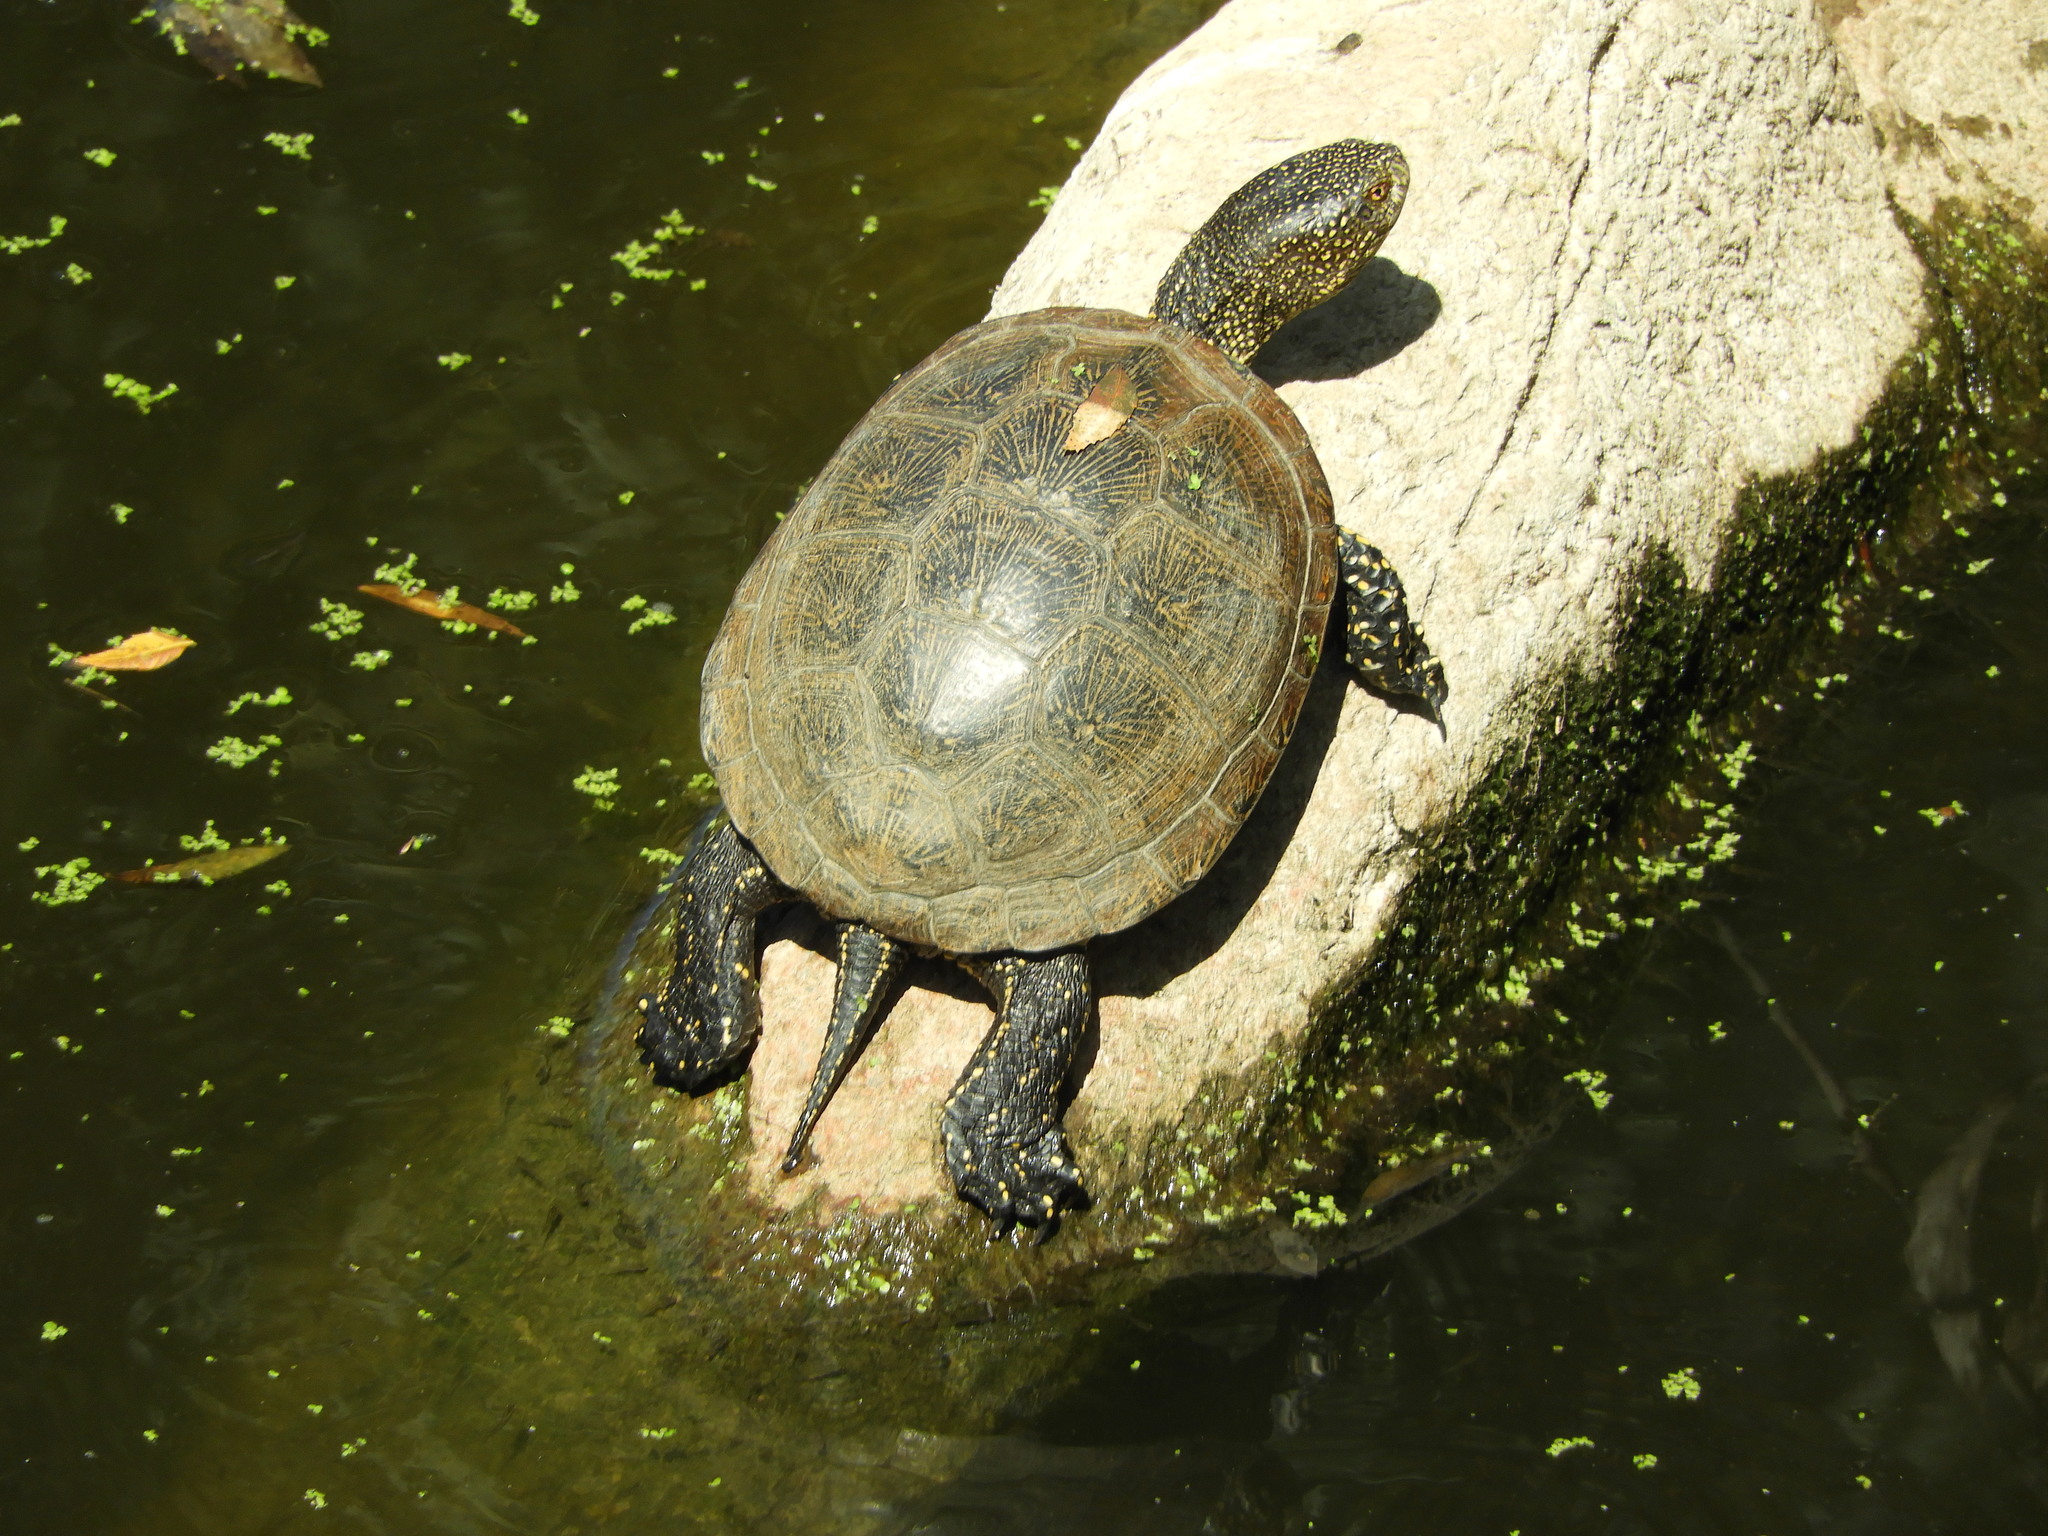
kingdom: Animalia
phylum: Chordata
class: Testudines
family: Emydidae
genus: Emys
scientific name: Emys orbicularis
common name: European pond turtle
